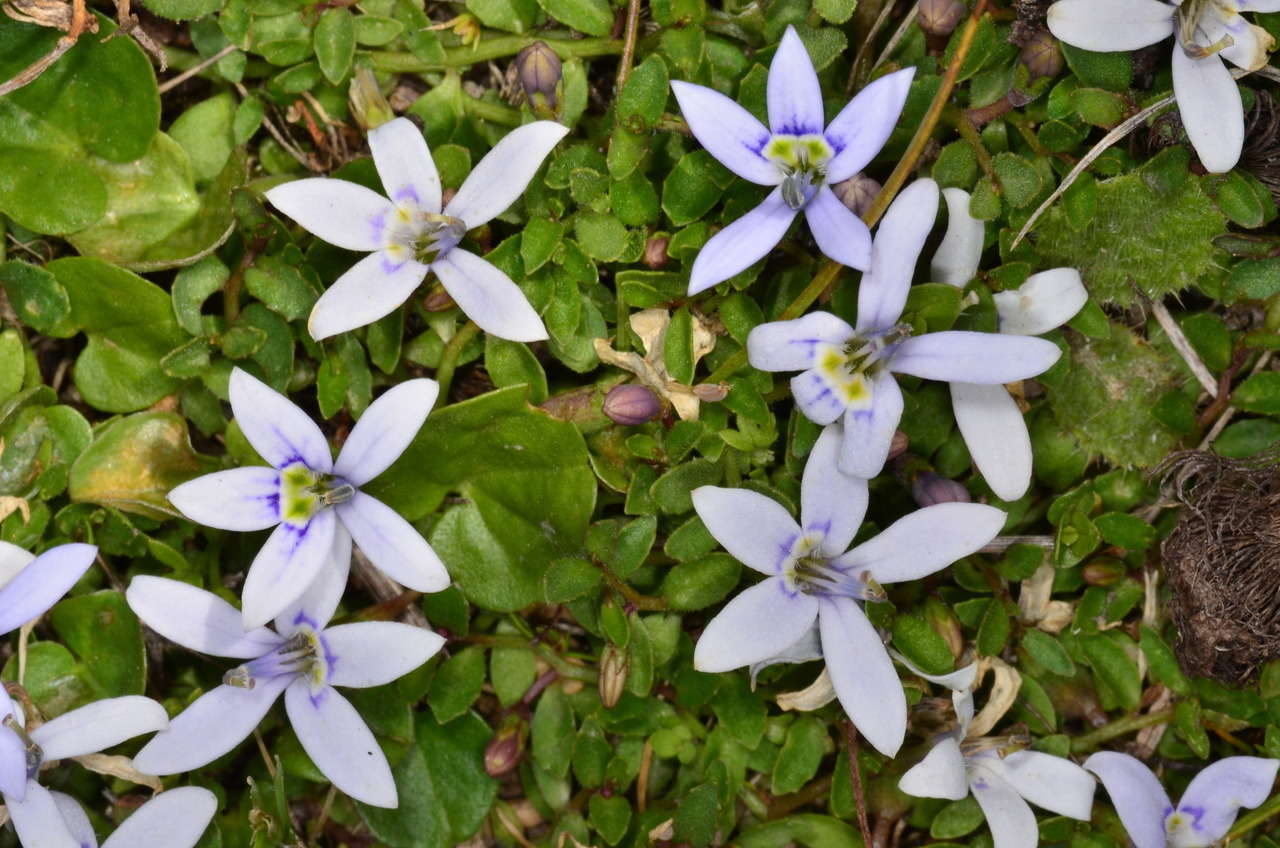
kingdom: Plantae
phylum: Tracheophyta
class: Magnoliopsida
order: Asterales
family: Campanulaceae
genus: Isotoma
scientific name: Isotoma fluviatilis
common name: Isotoma
